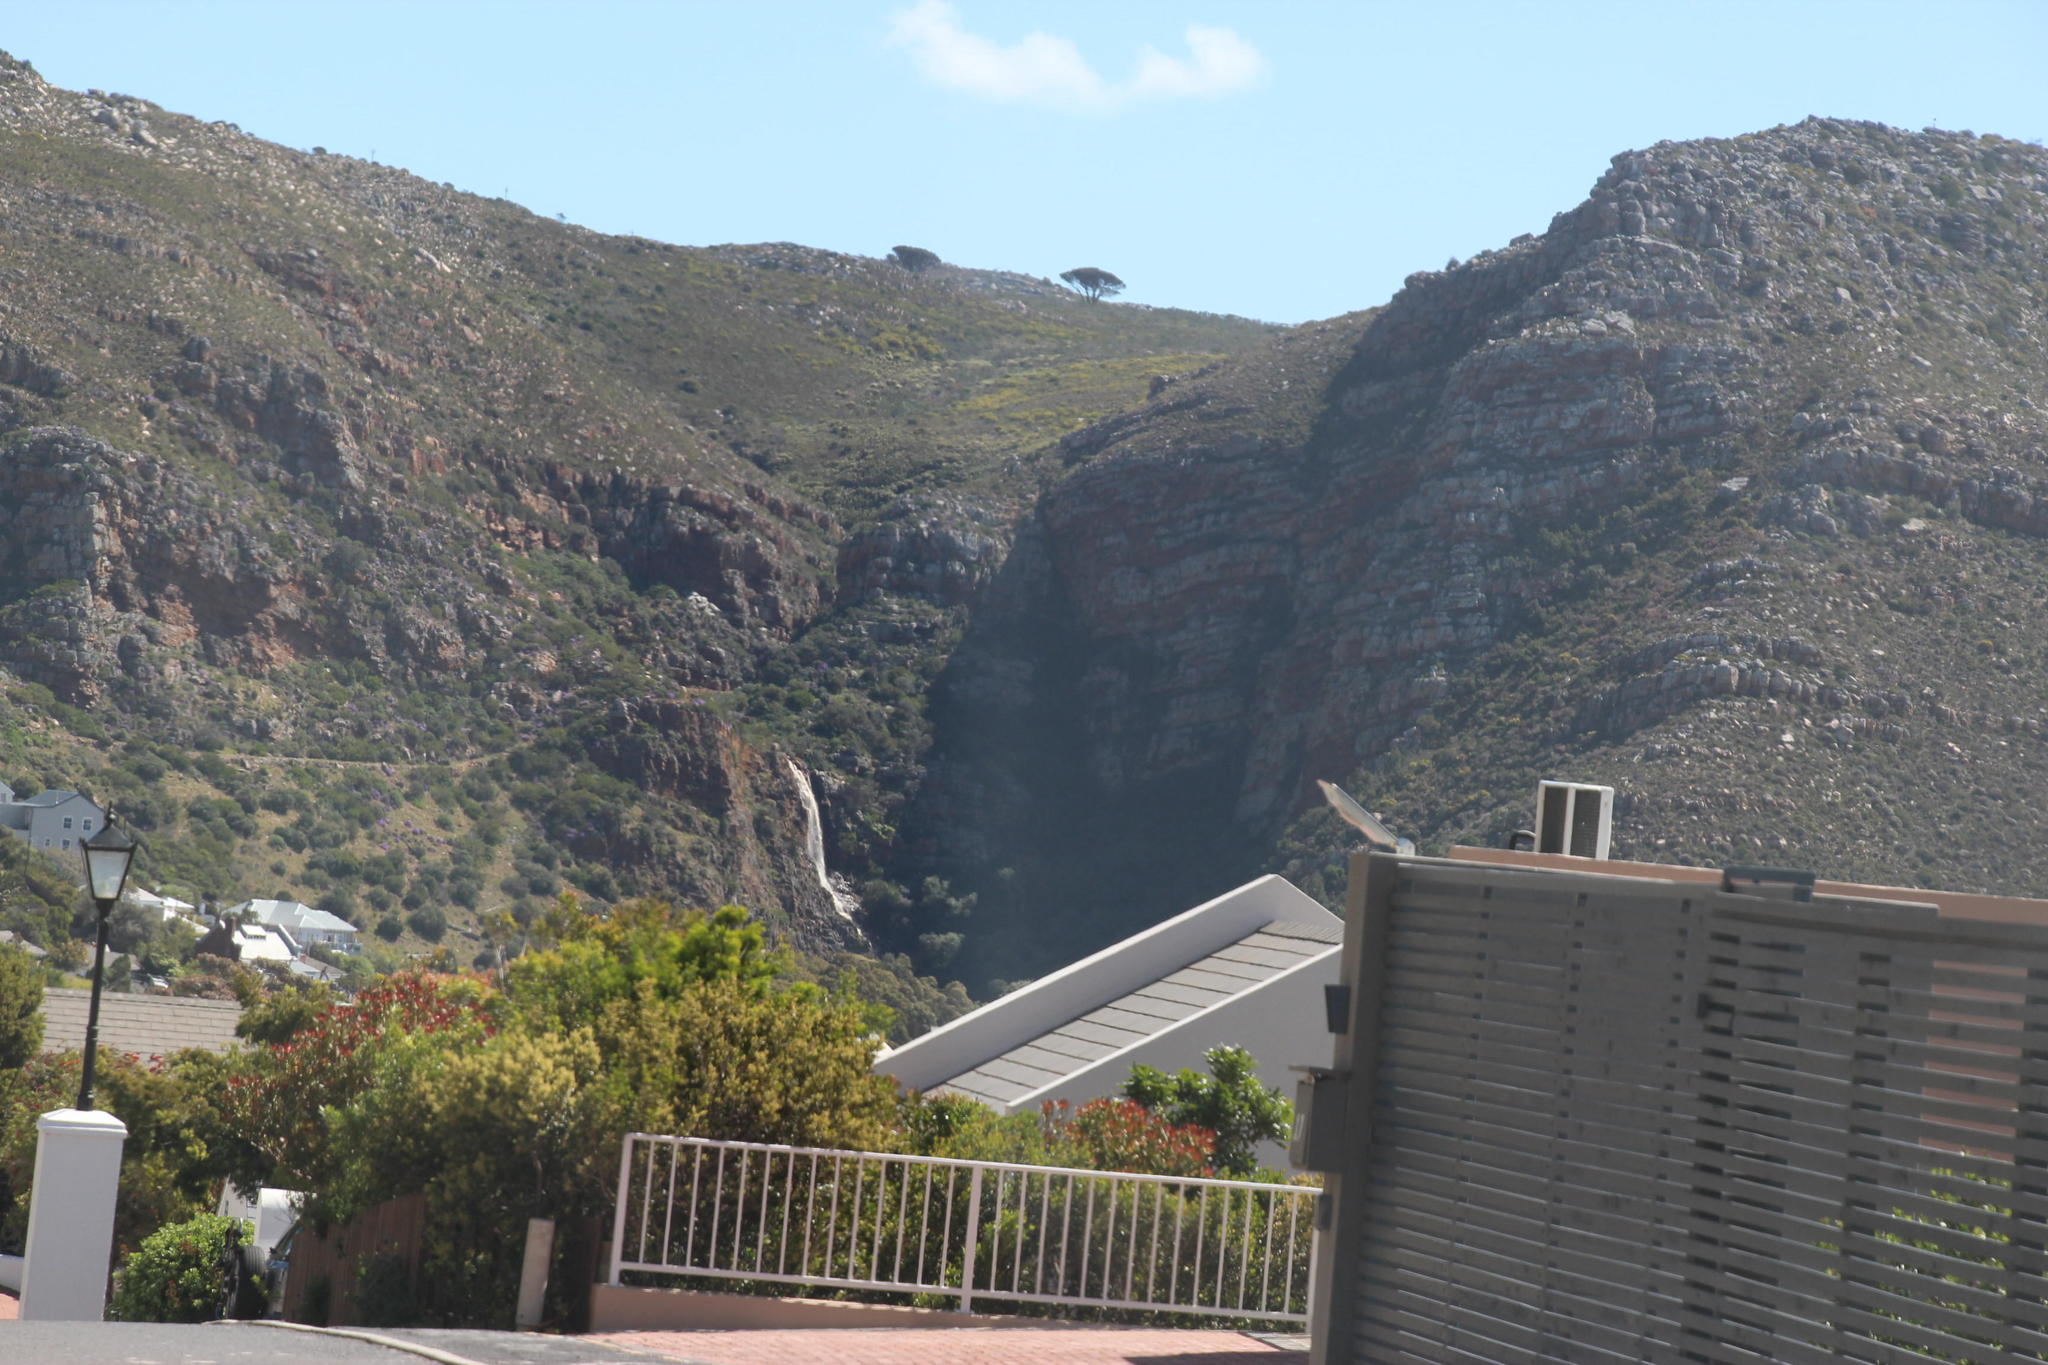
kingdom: Plantae
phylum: Tracheophyta
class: Pinopsida
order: Pinales
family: Pinaceae
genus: Pinus
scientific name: Pinus pinea
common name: Italian stone pine
